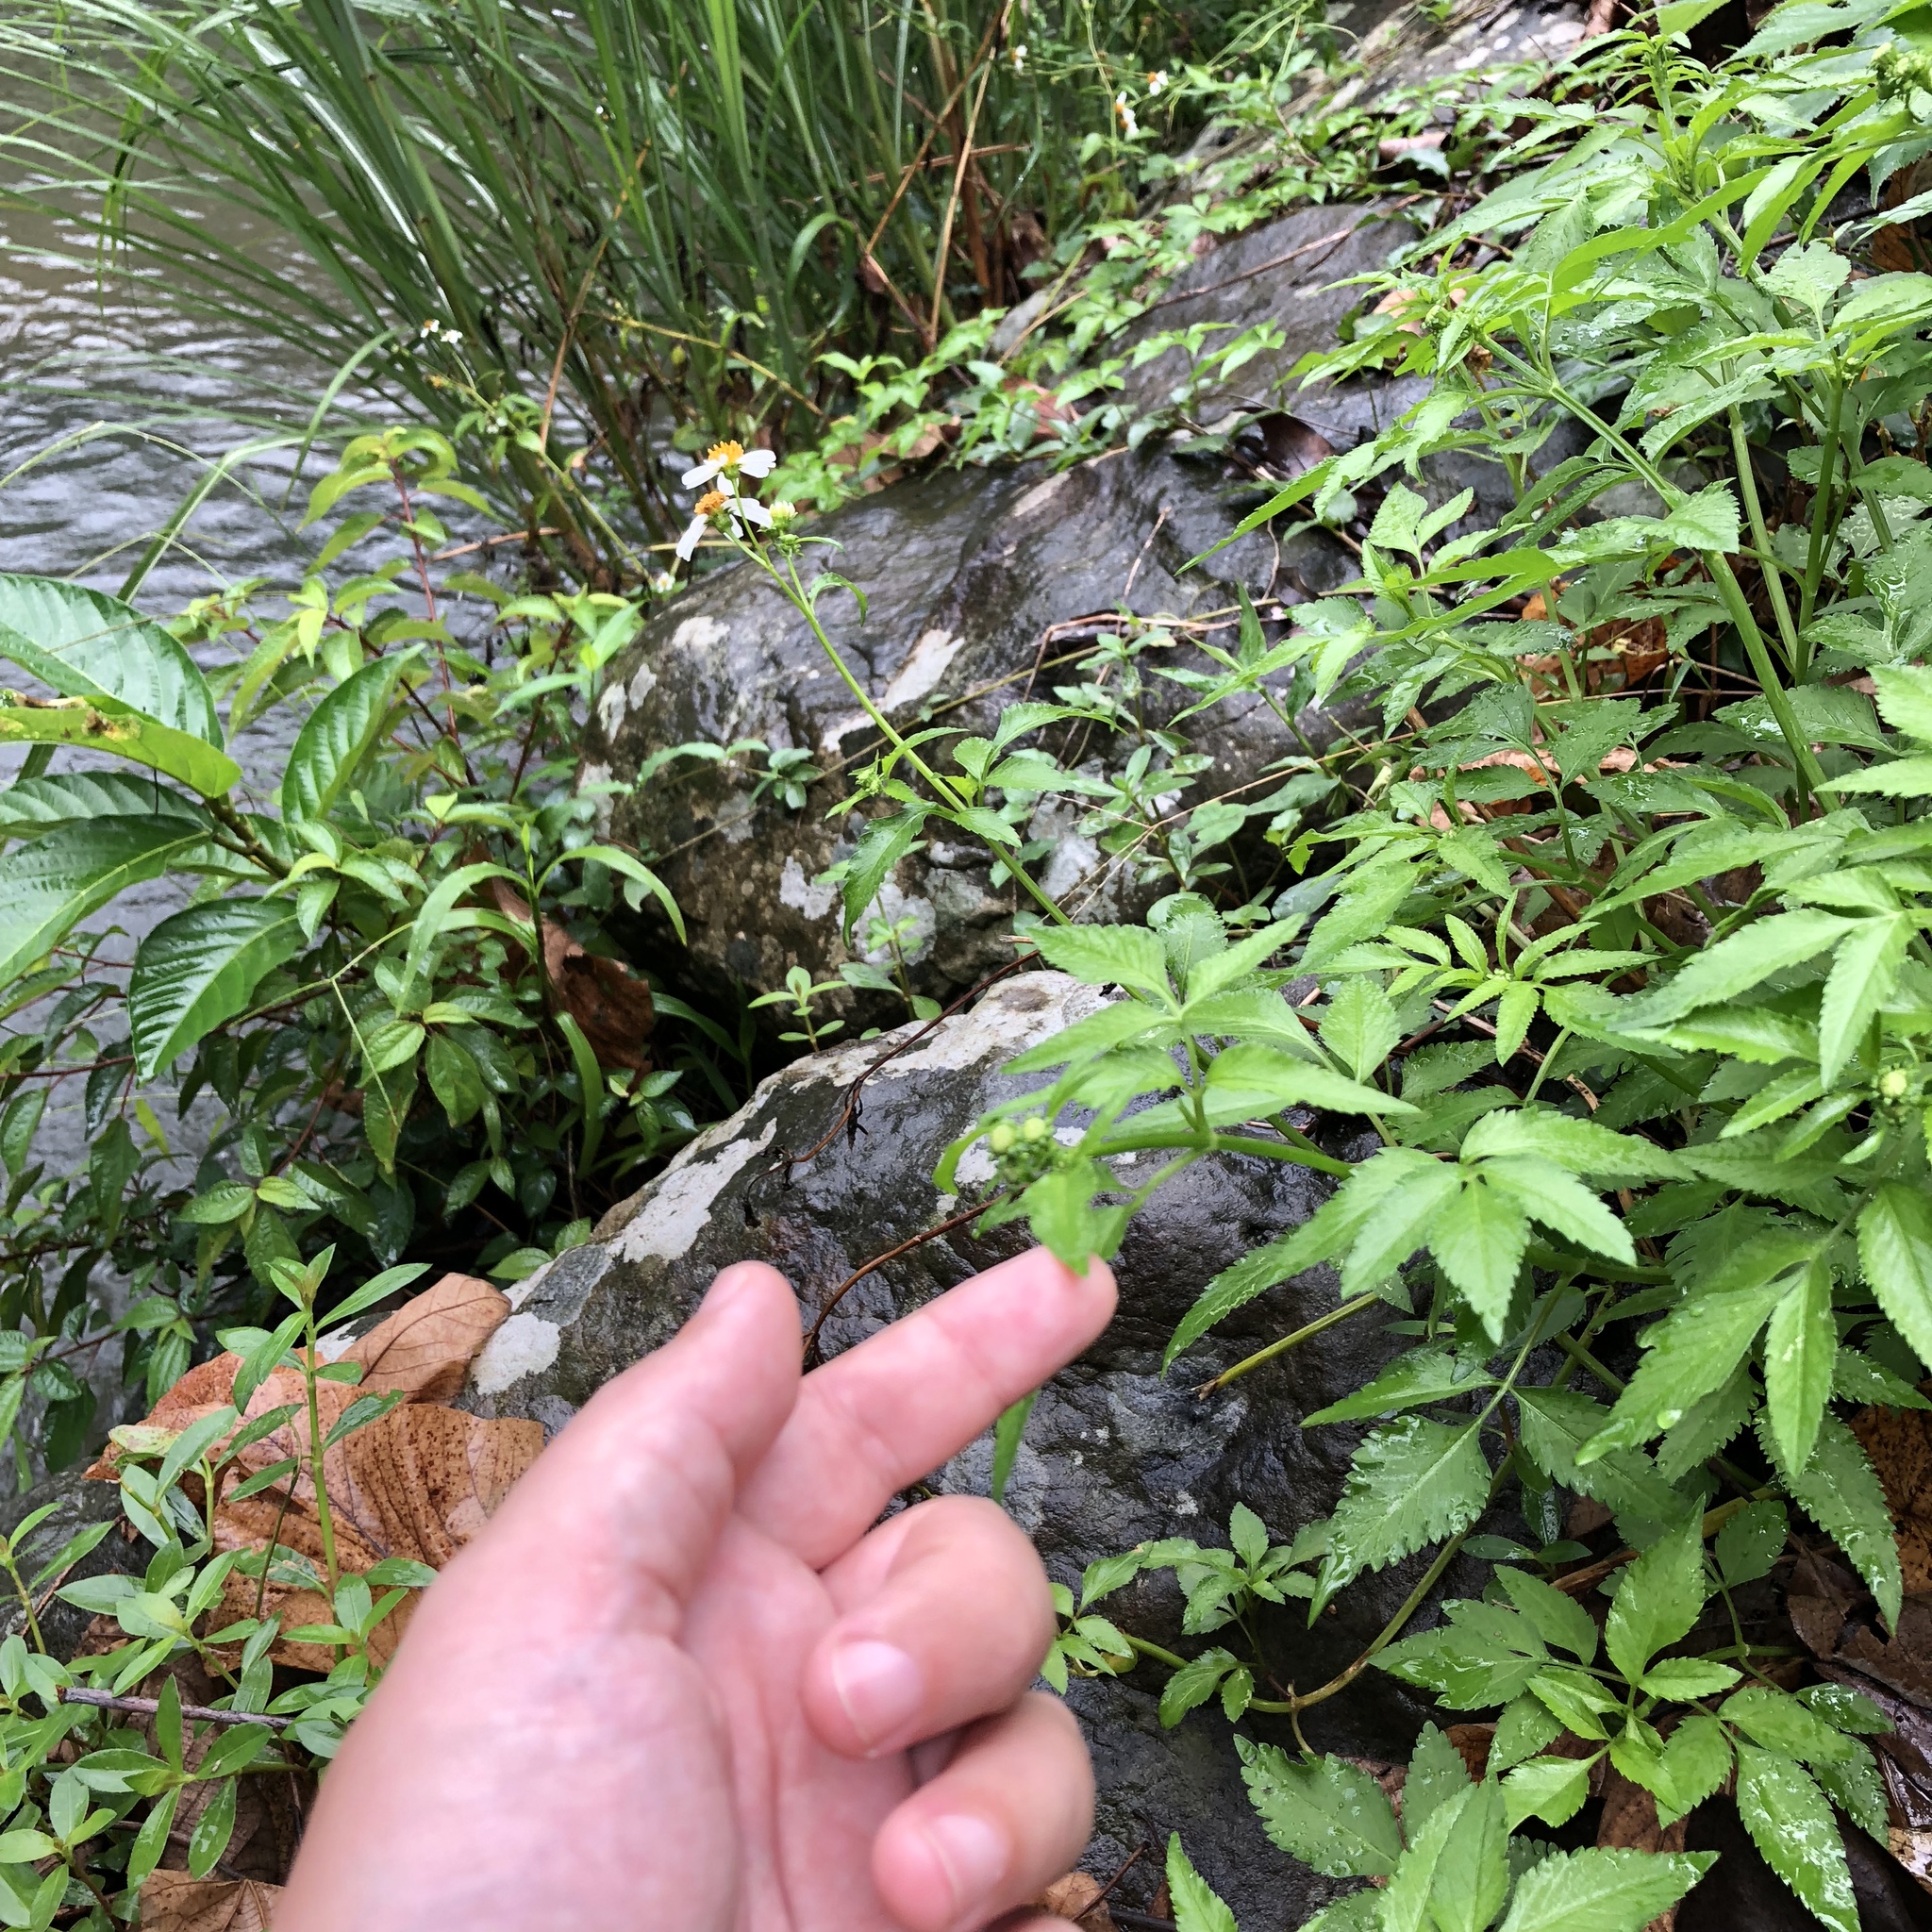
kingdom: Plantae
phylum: Tracheophyta
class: Magnoliopsida
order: Asterales
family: Asteraceae
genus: Bidens
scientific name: Bidens alba
